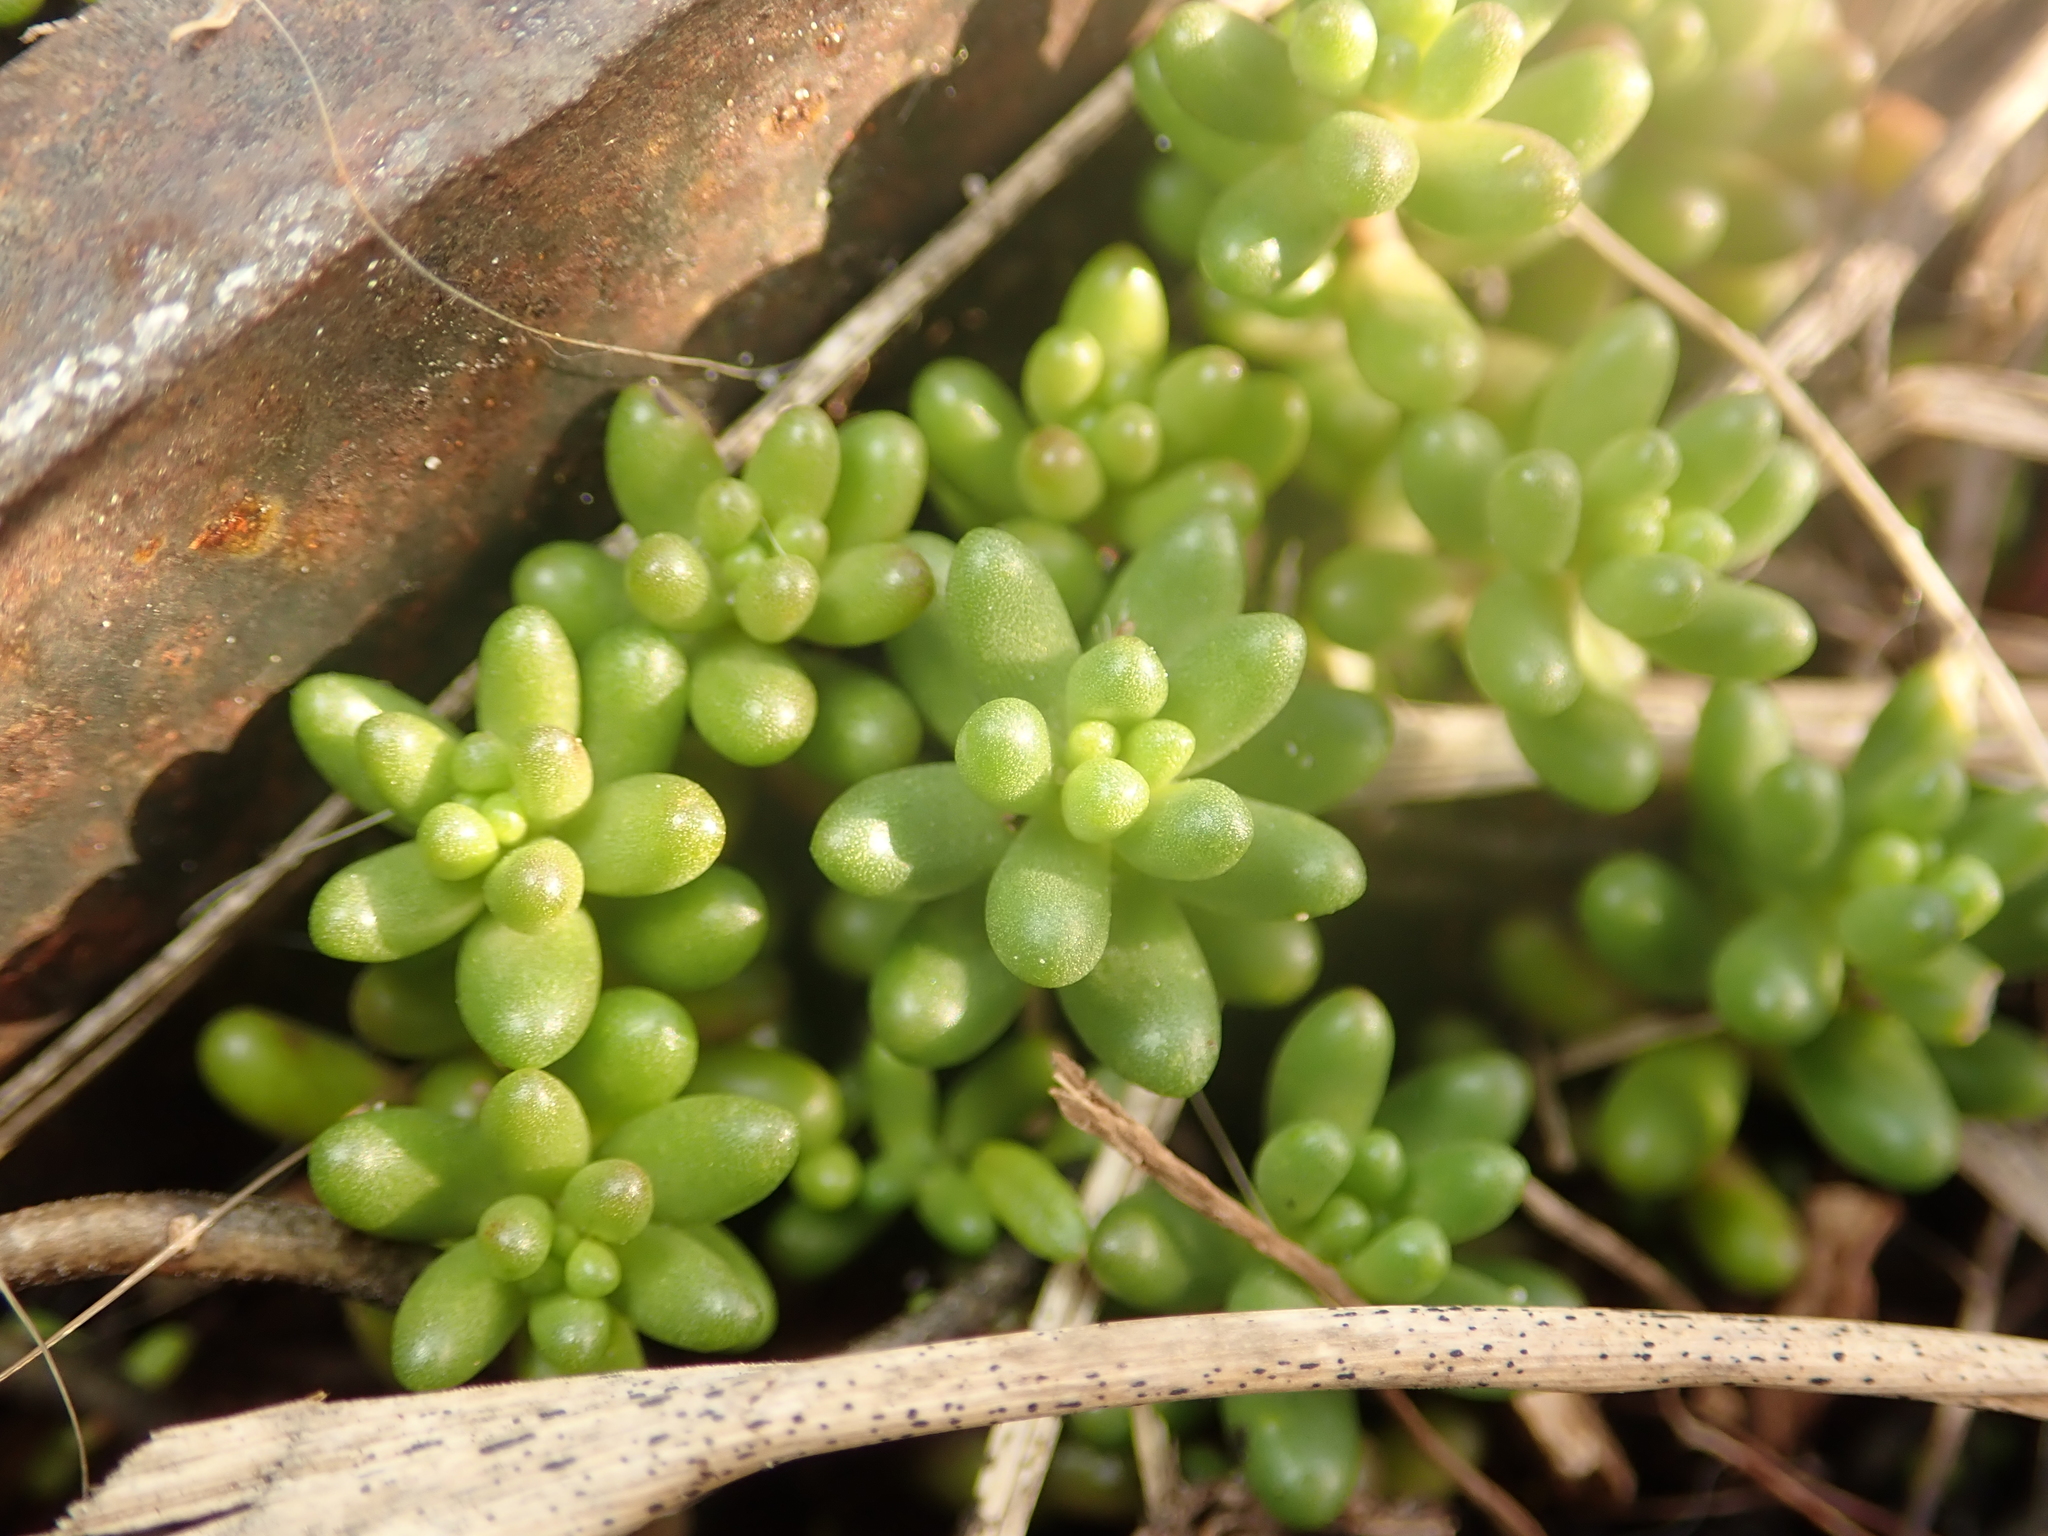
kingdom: Plantae
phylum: Tracheophyta
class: Magnoliopsida
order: Saxifragales
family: Crassulaceae
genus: Sedum
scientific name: Sedum album
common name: White stonecrop
